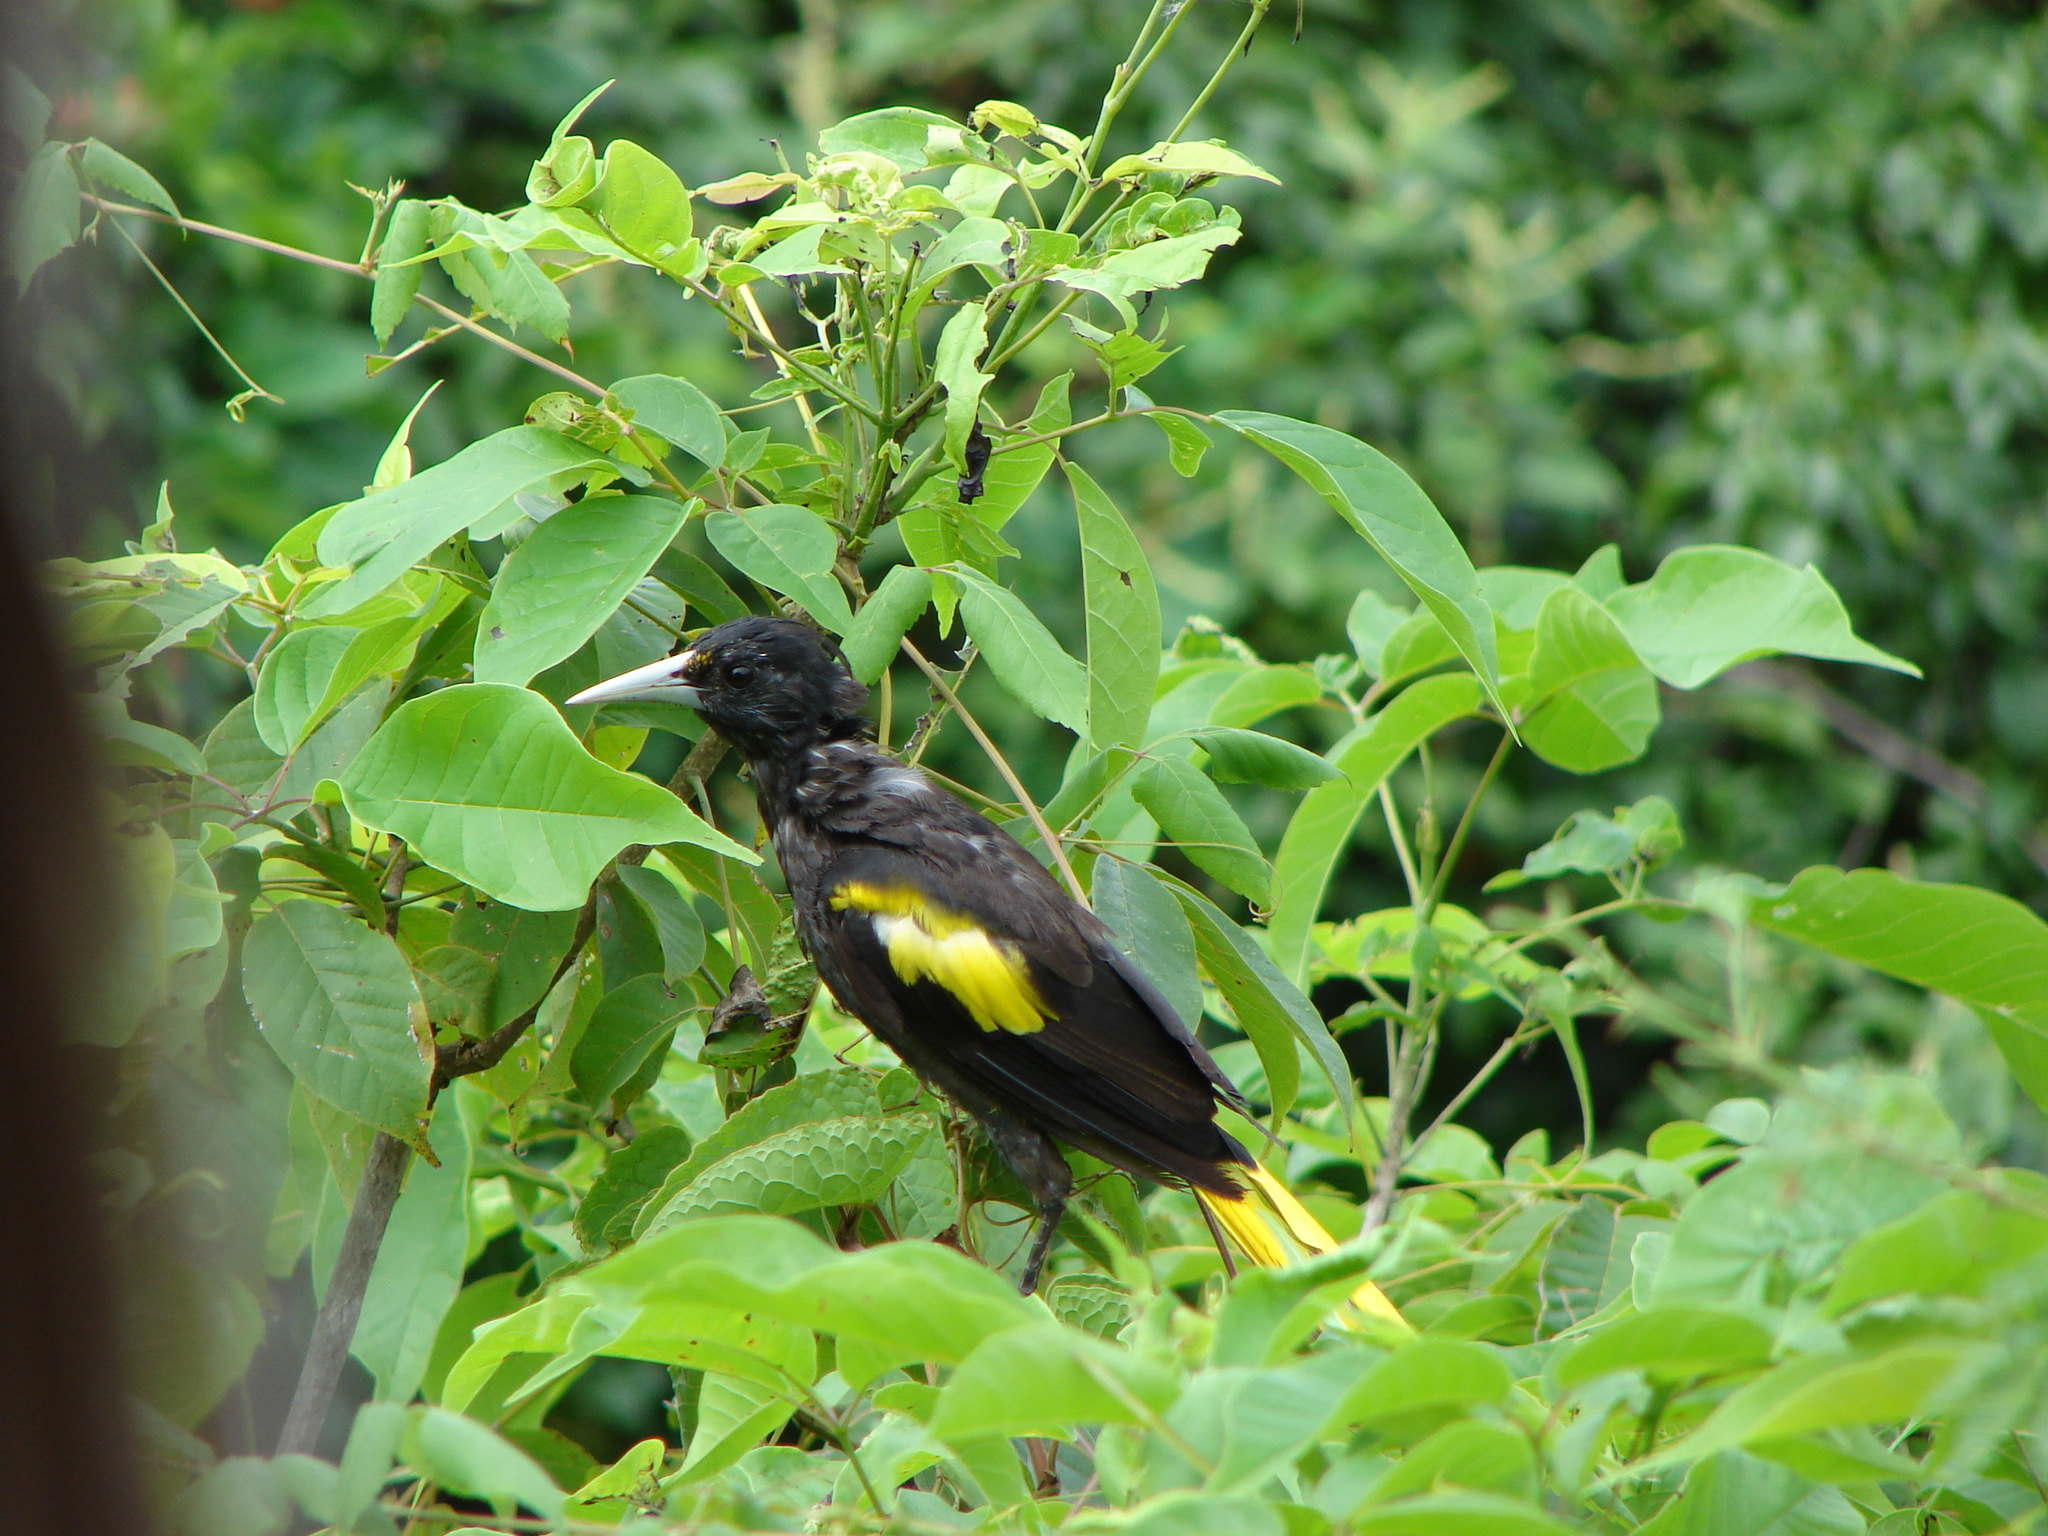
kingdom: Animalia
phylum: Chordata
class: Aves
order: Passeriformes
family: Icteridae
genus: Cacicus
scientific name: Cacicus melanicterus
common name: Yellow-winged cacique
